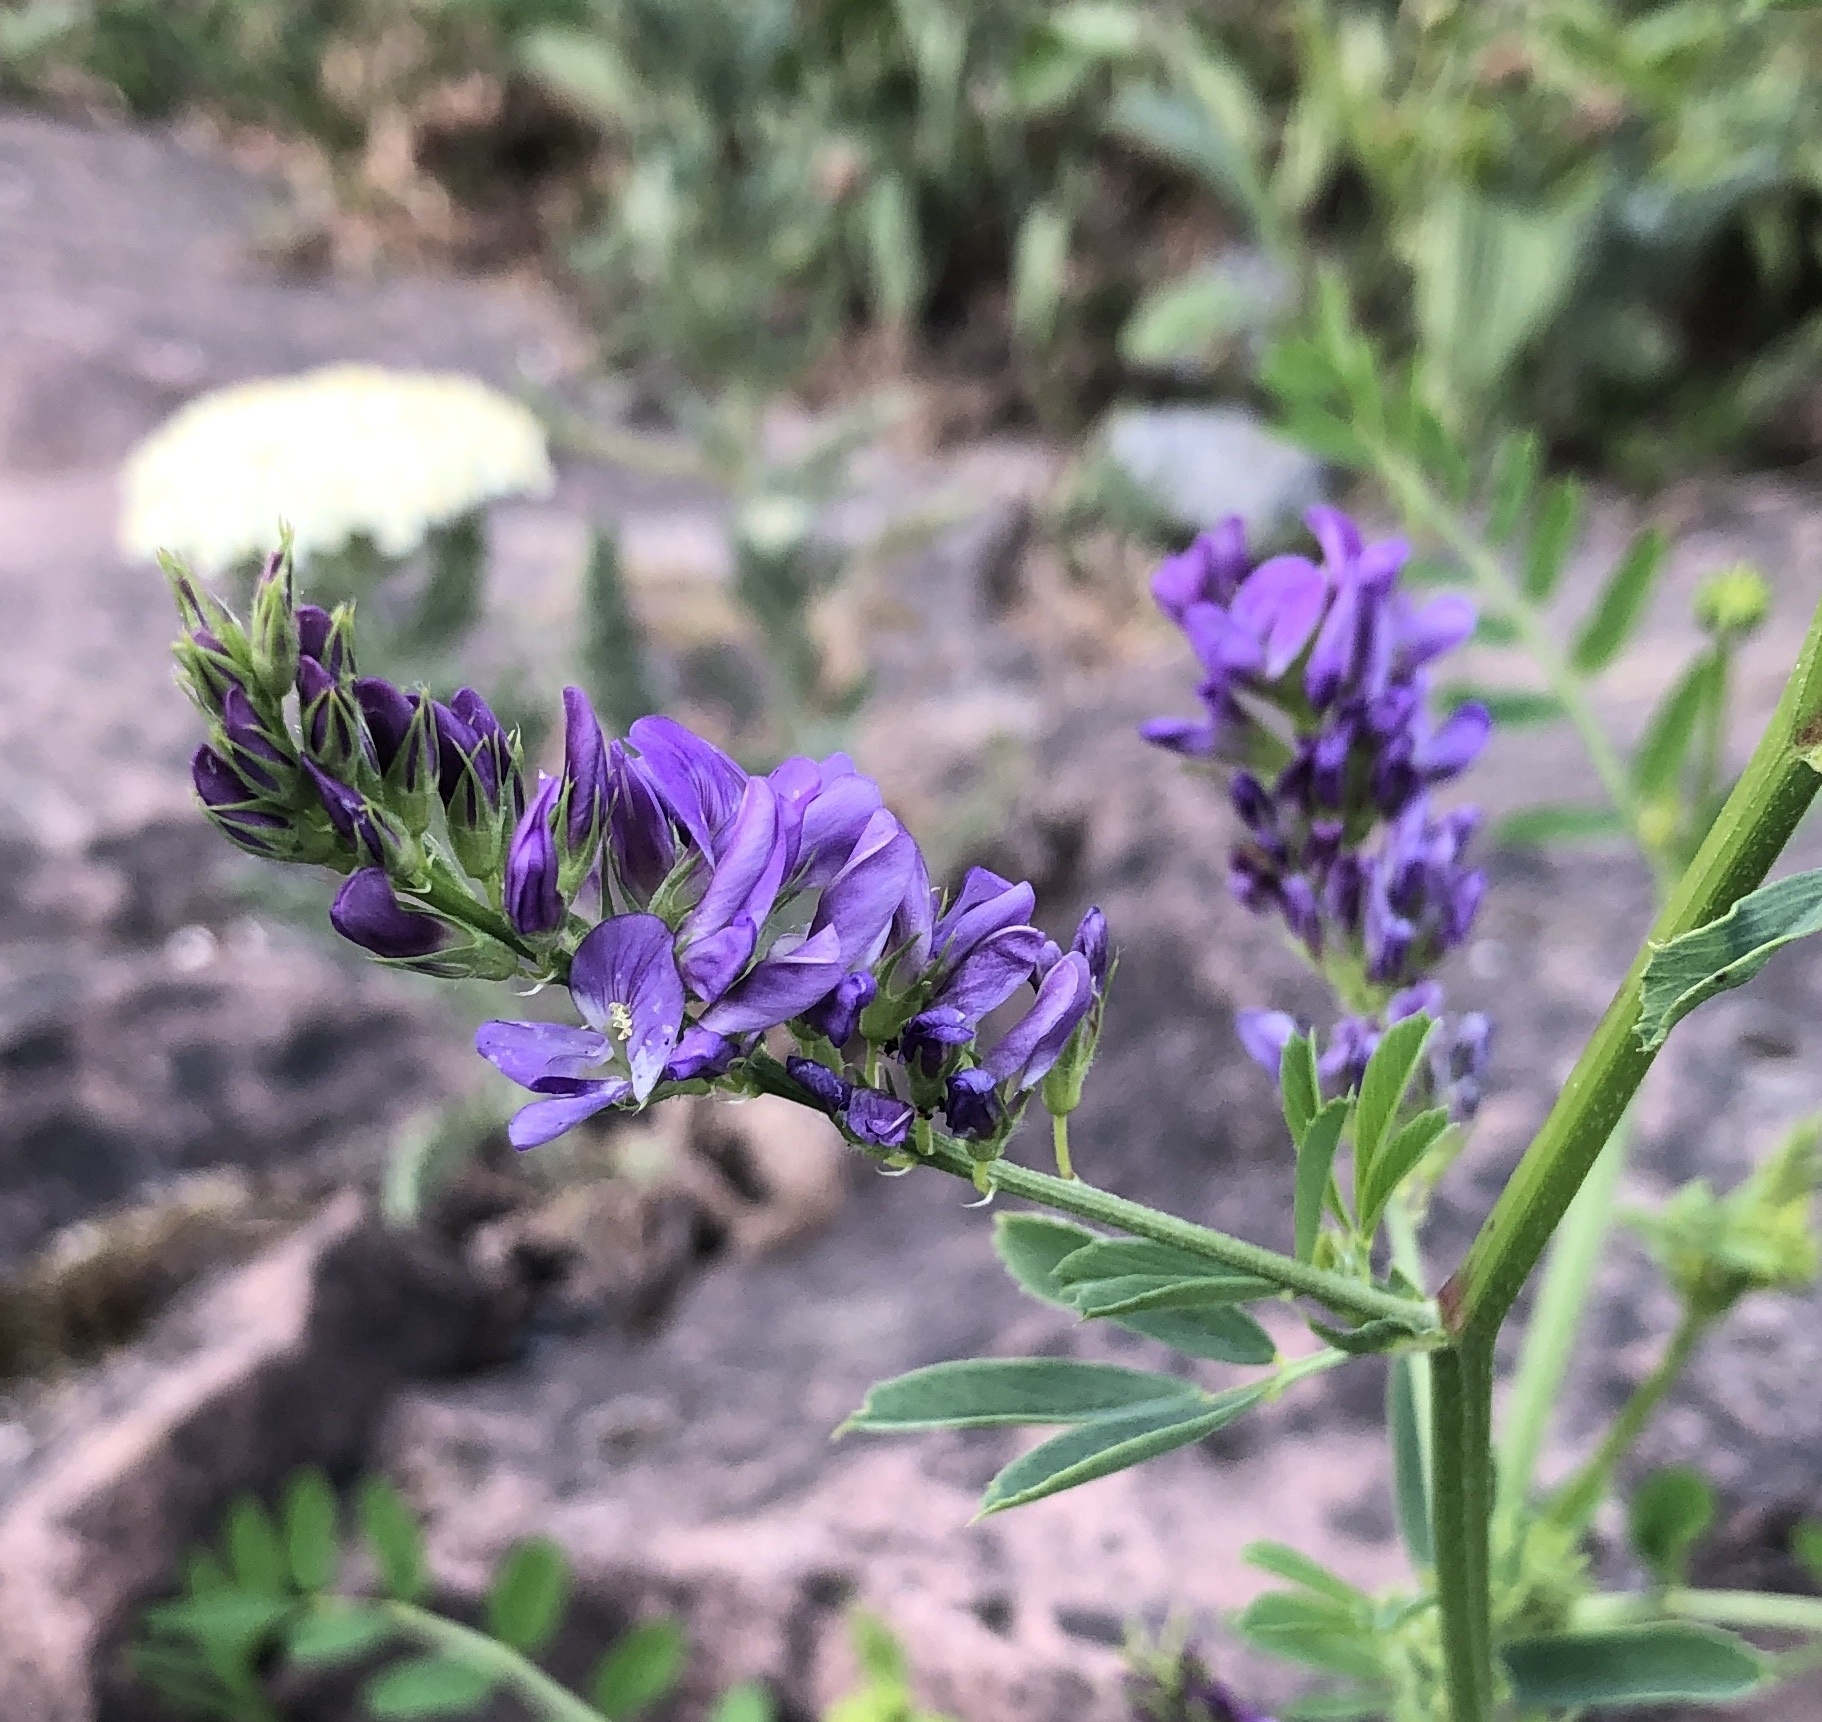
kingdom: Plantae
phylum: Tracheophyta
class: Magnoliopsida
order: Fabales
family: Fabaceae
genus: Medicago
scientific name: Medicago sativa
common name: Alfalfa
